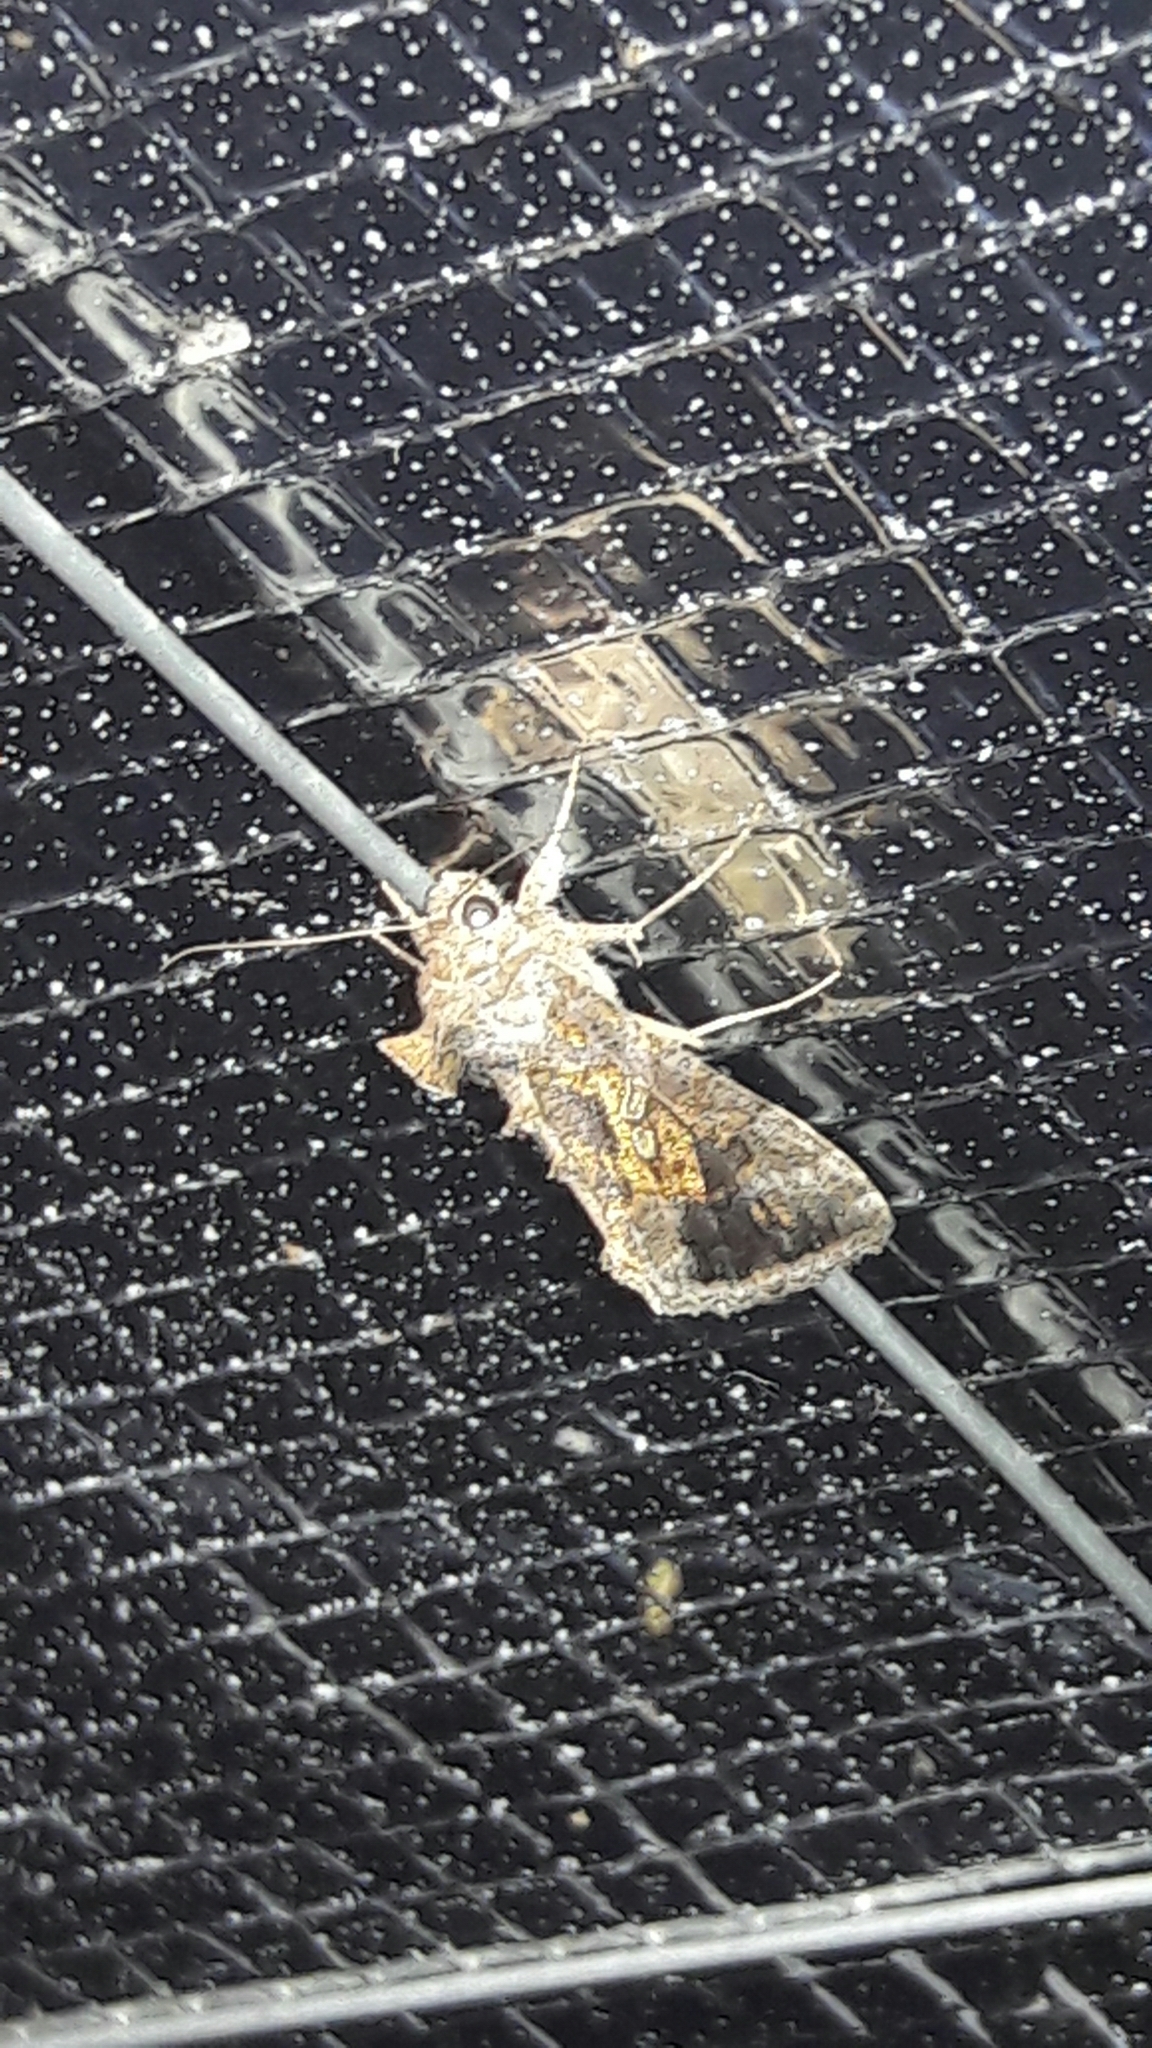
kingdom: Animalia
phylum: Arthropoda
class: Insecta
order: Lepidoptera
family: Noctuidae
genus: Chrysodeixis
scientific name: Chrysodeixis includens
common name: Cutworm moth
